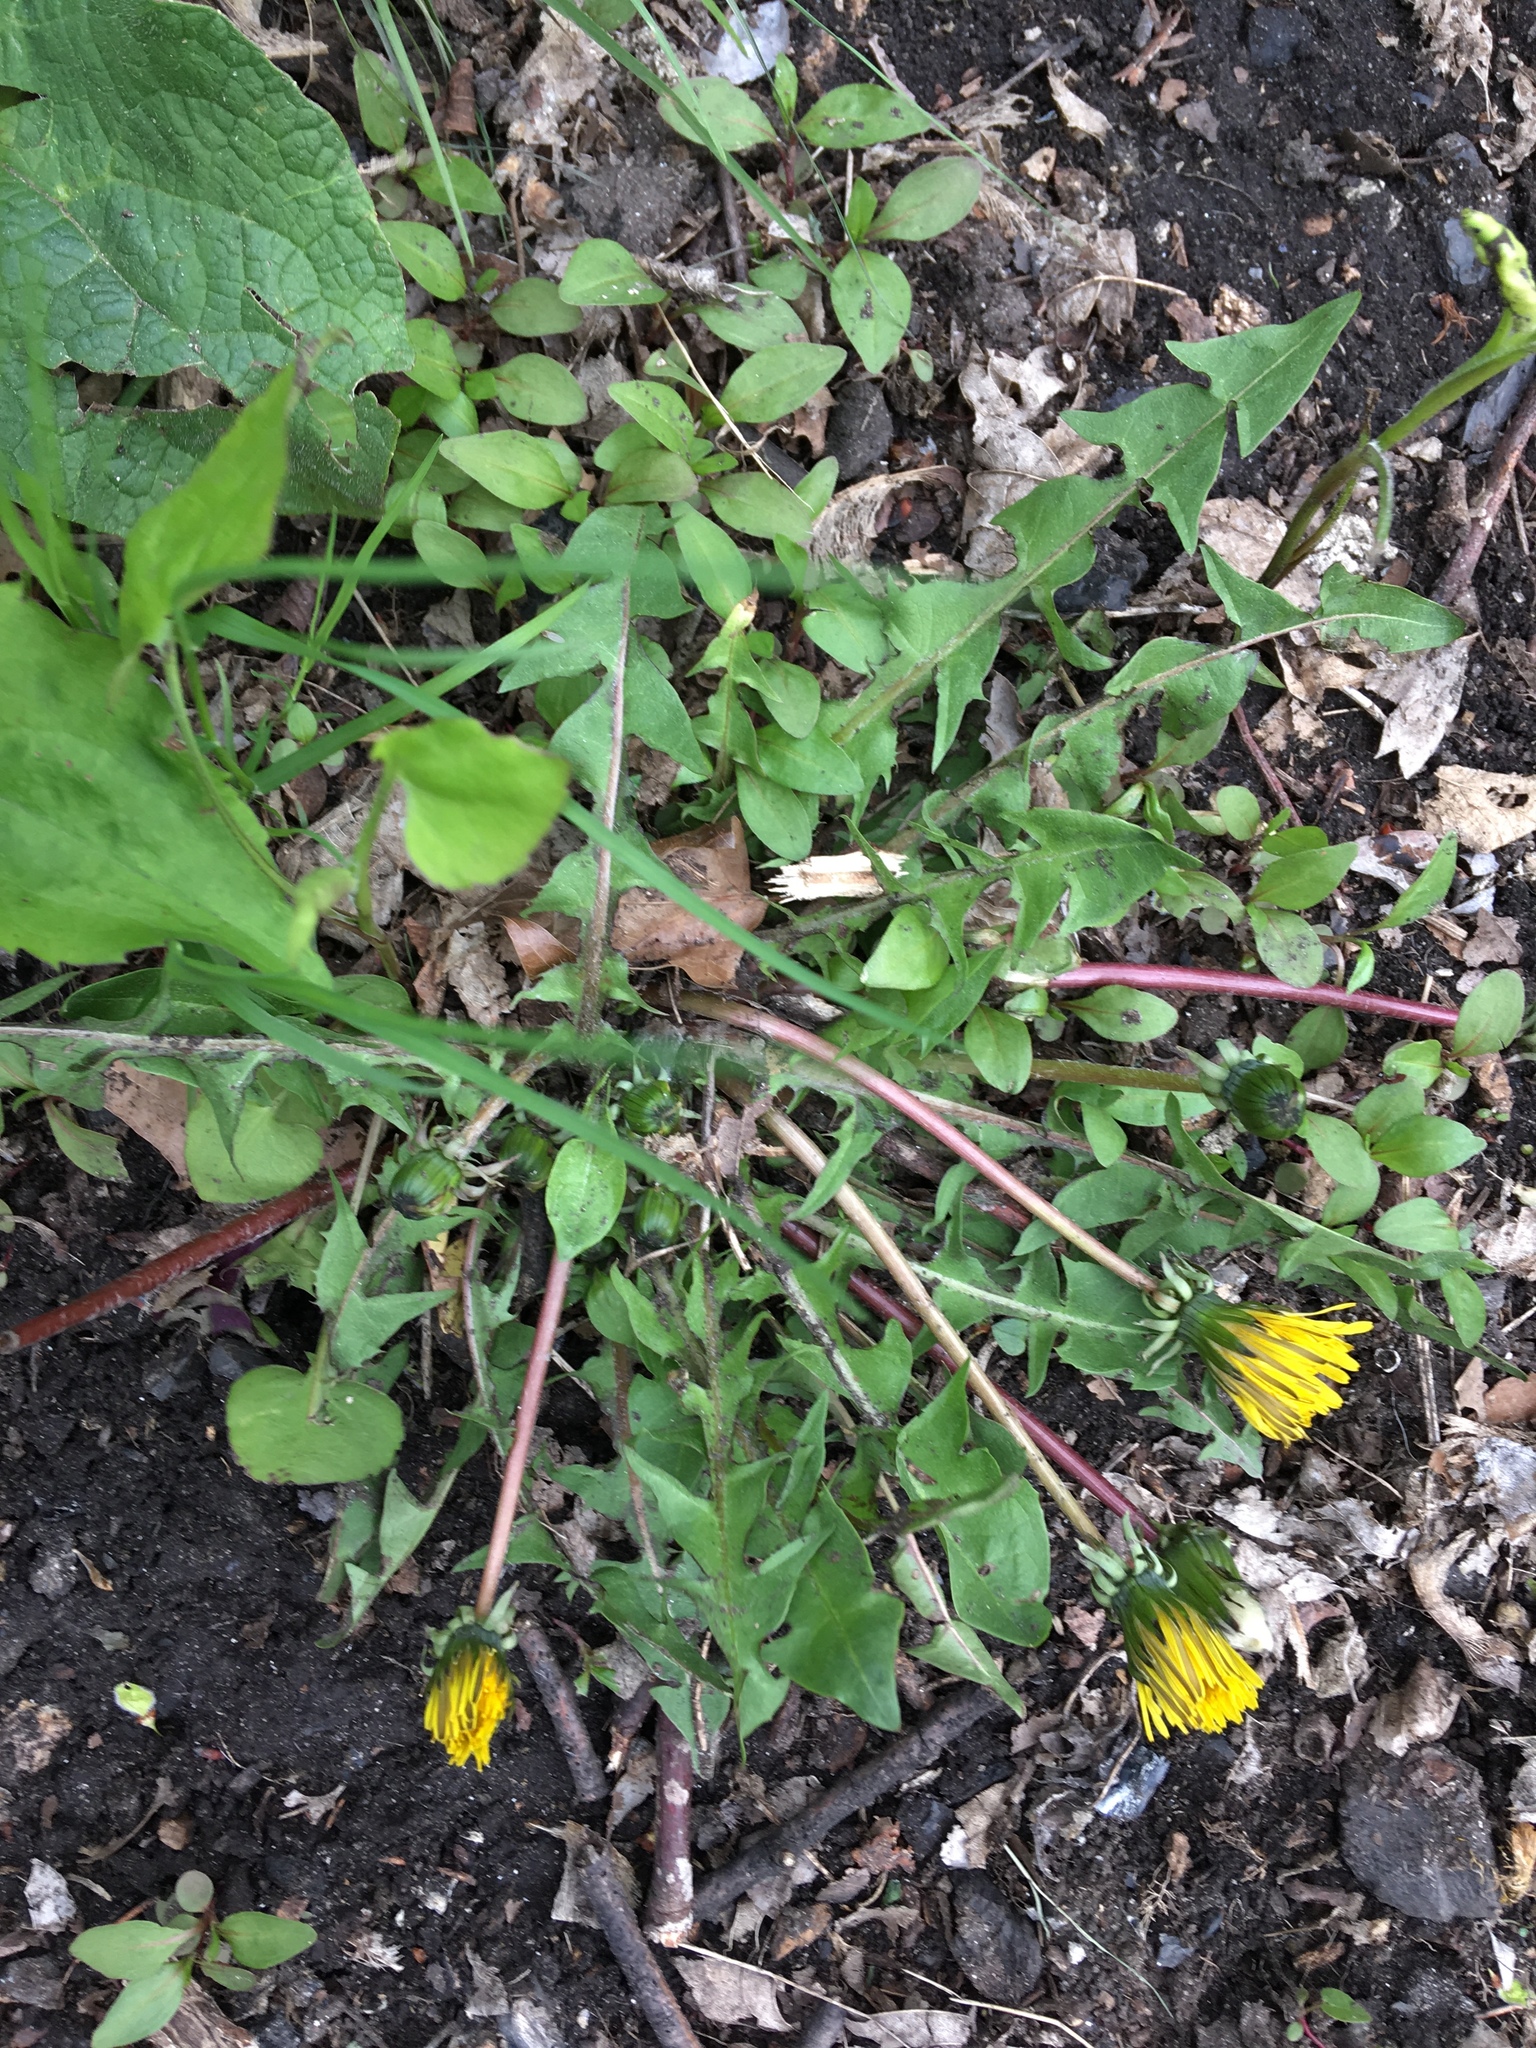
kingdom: Plantae
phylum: Tracheophyta
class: Magnoliopsida
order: Asterales
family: Asteraceae
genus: Taraxacum
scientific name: Taraxacum
